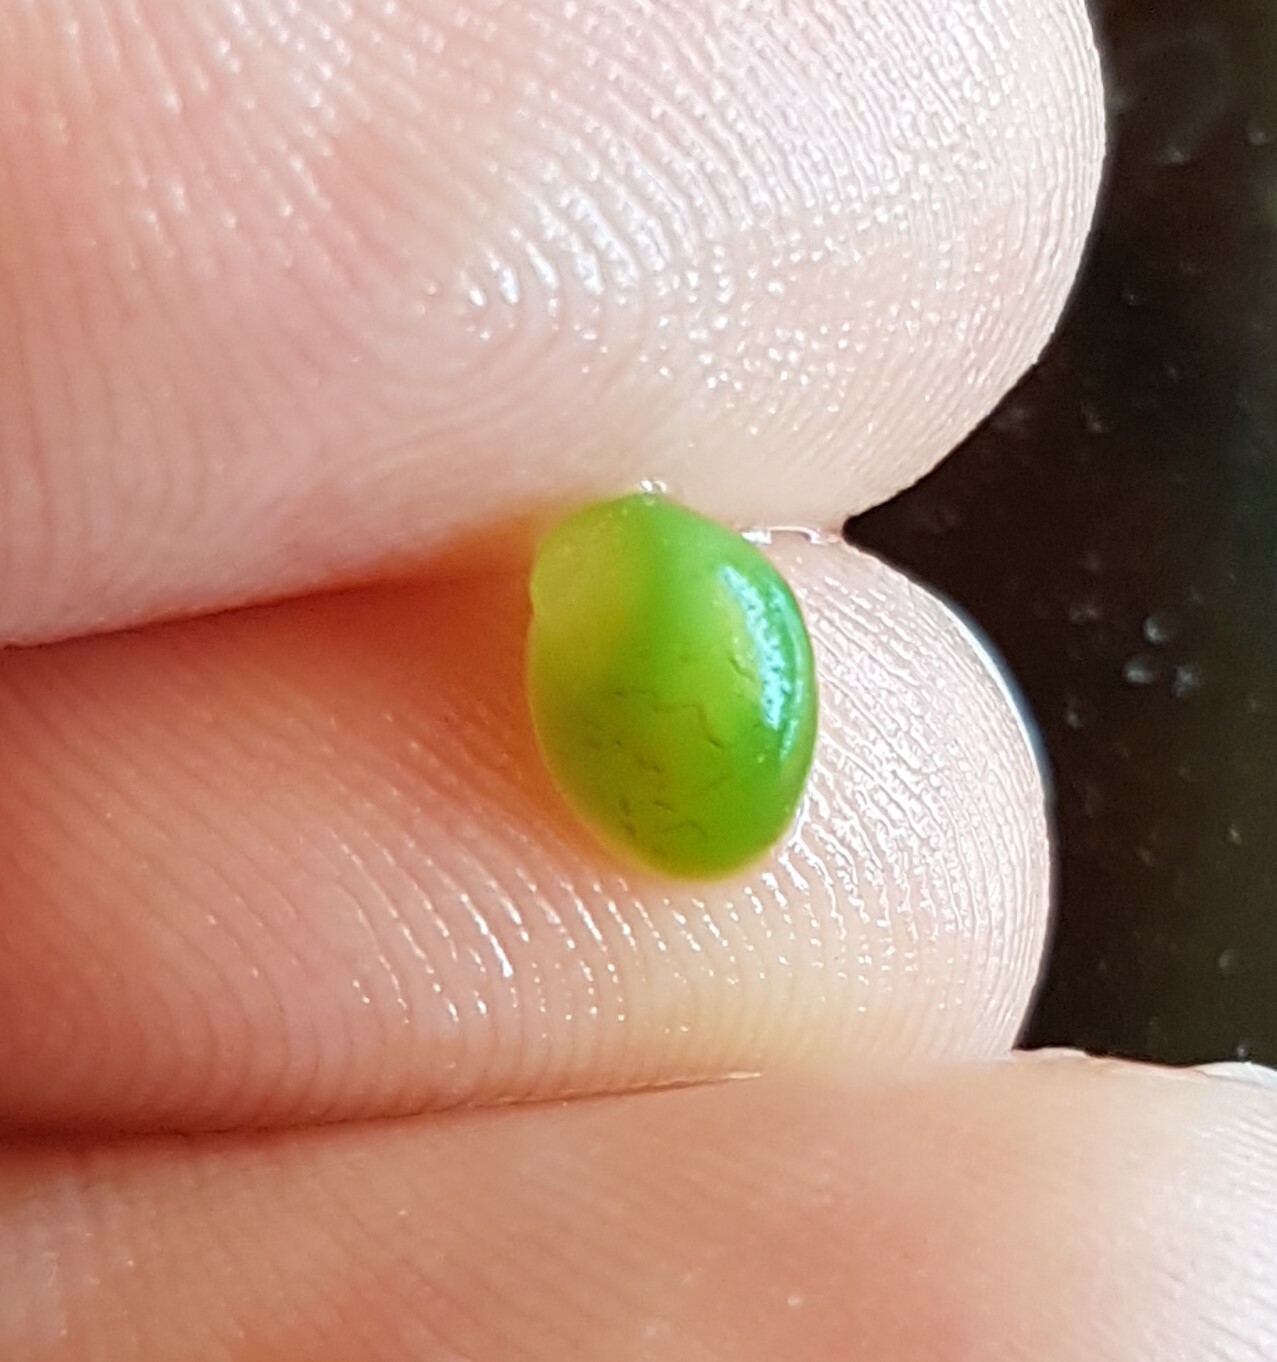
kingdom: Animalia
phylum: Mollusca
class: Gastropoda
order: Cycloneritida
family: Neritidae
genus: Smaragdia
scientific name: Smaragdia viridis
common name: Emerald nerite
